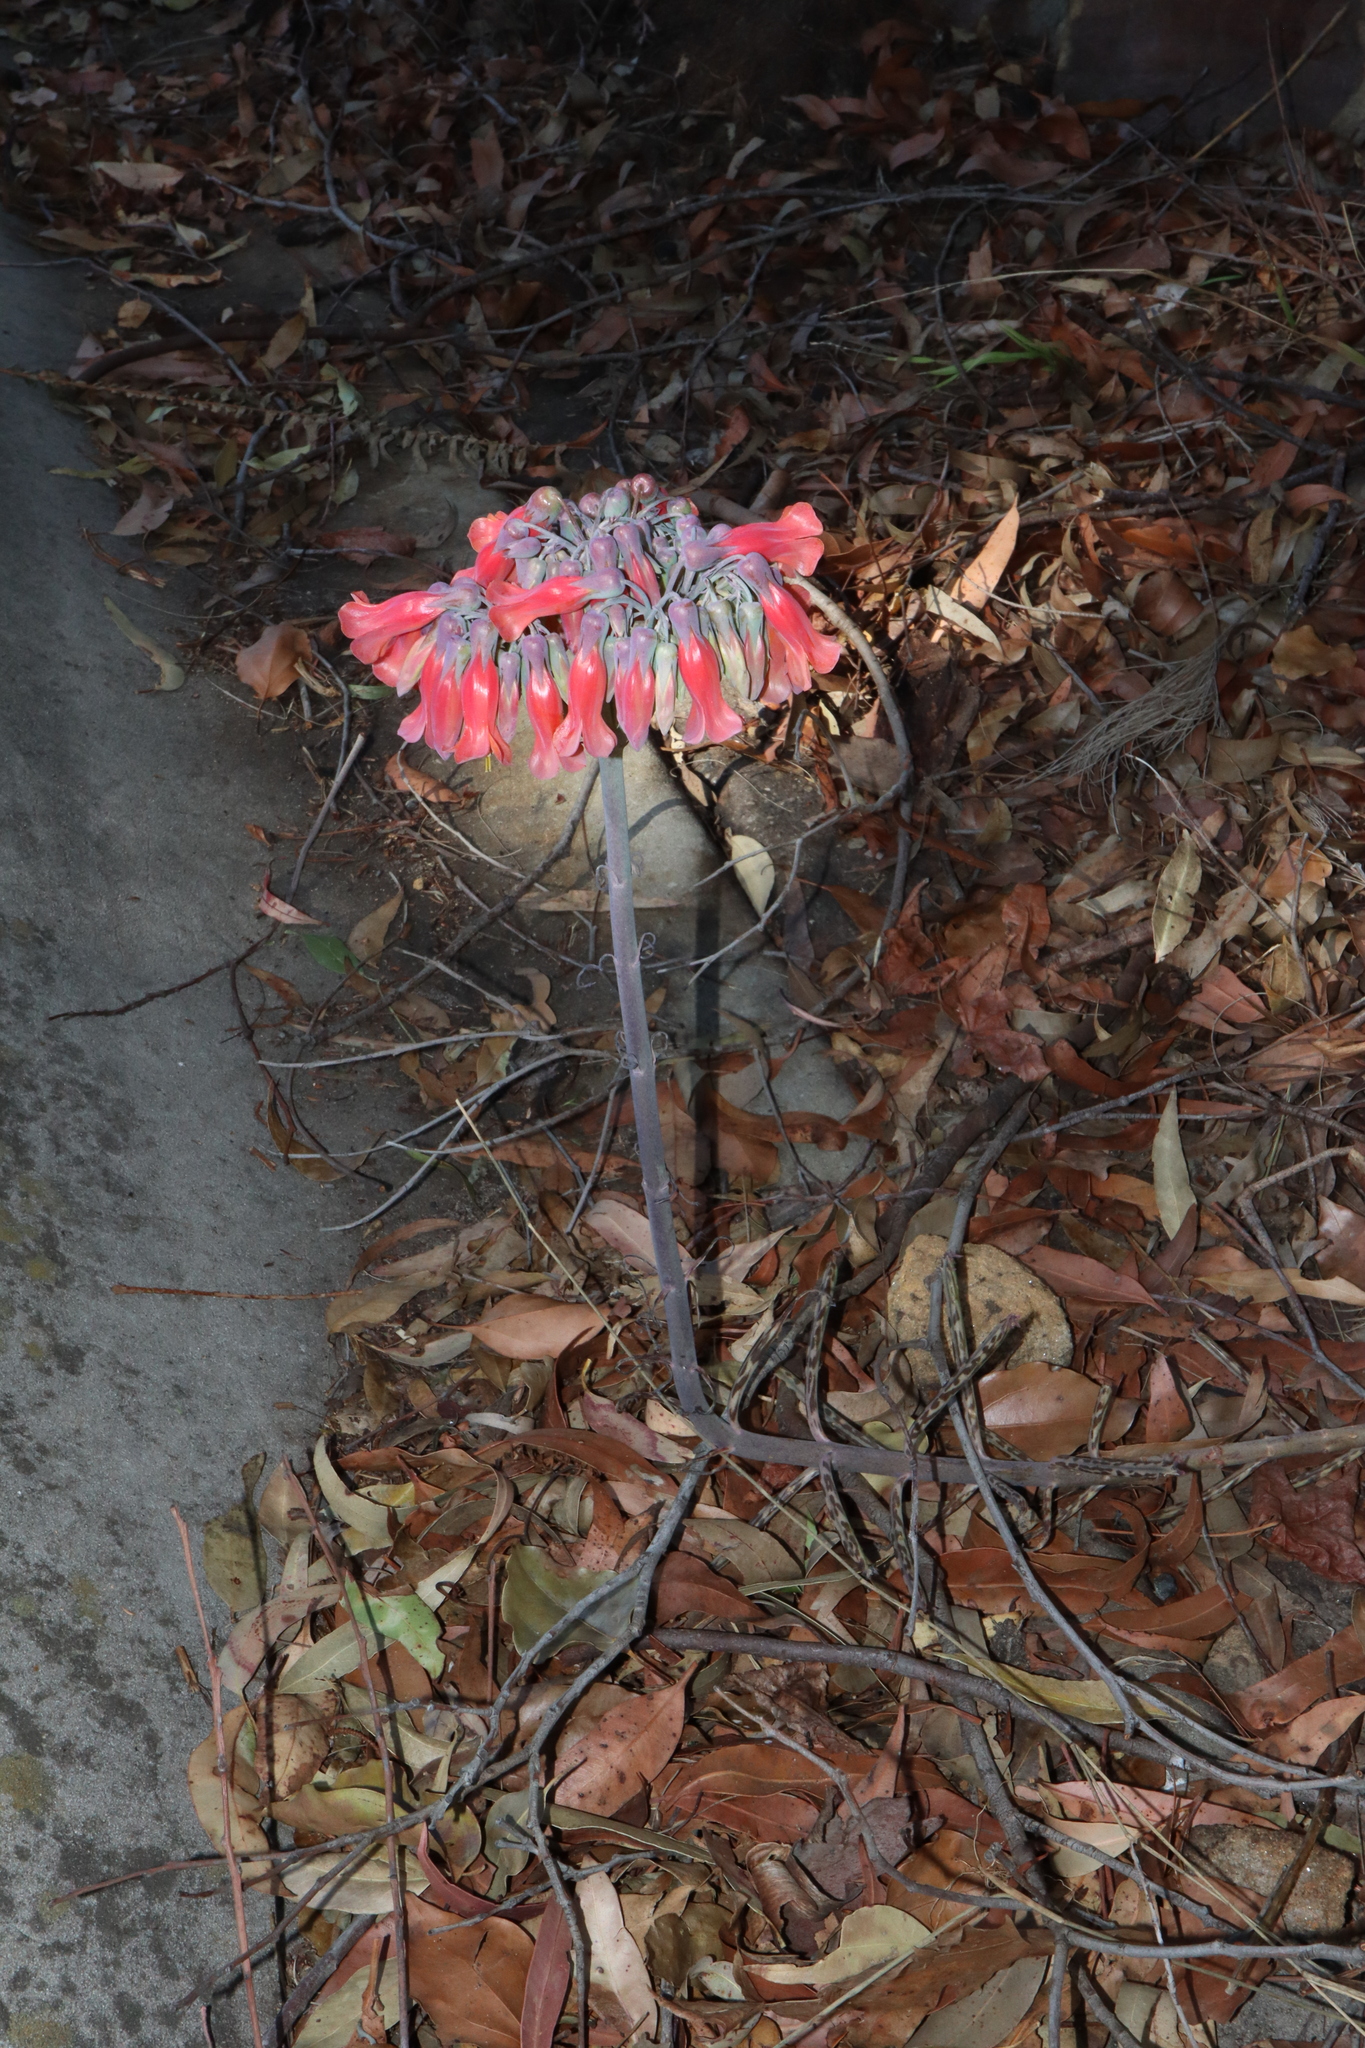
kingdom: Plantae
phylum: Tracheophyta
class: Magnoliopsida
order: Saxifragales
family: Crassulaceae
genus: Kalanchoe
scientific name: Kalanchoe delagoensis
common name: Chandelier plant
